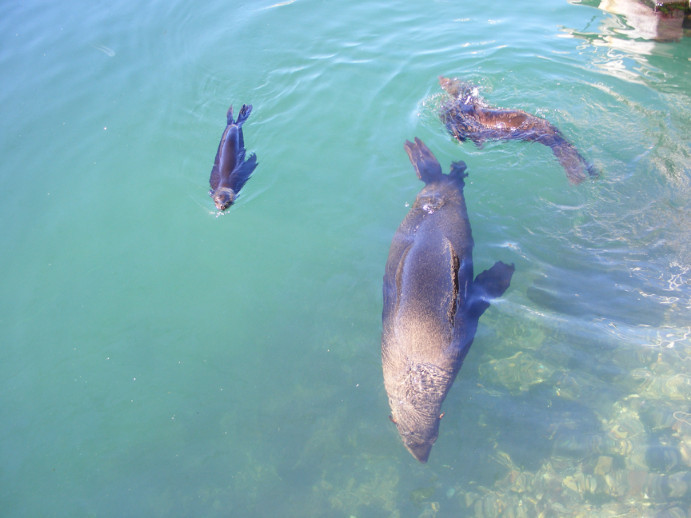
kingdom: Animalia
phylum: Chordata
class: Mammalia
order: Carnivora
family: Otariidae
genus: Arctocephalus
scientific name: Arctocephalus pusillus
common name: Brown fur seal
